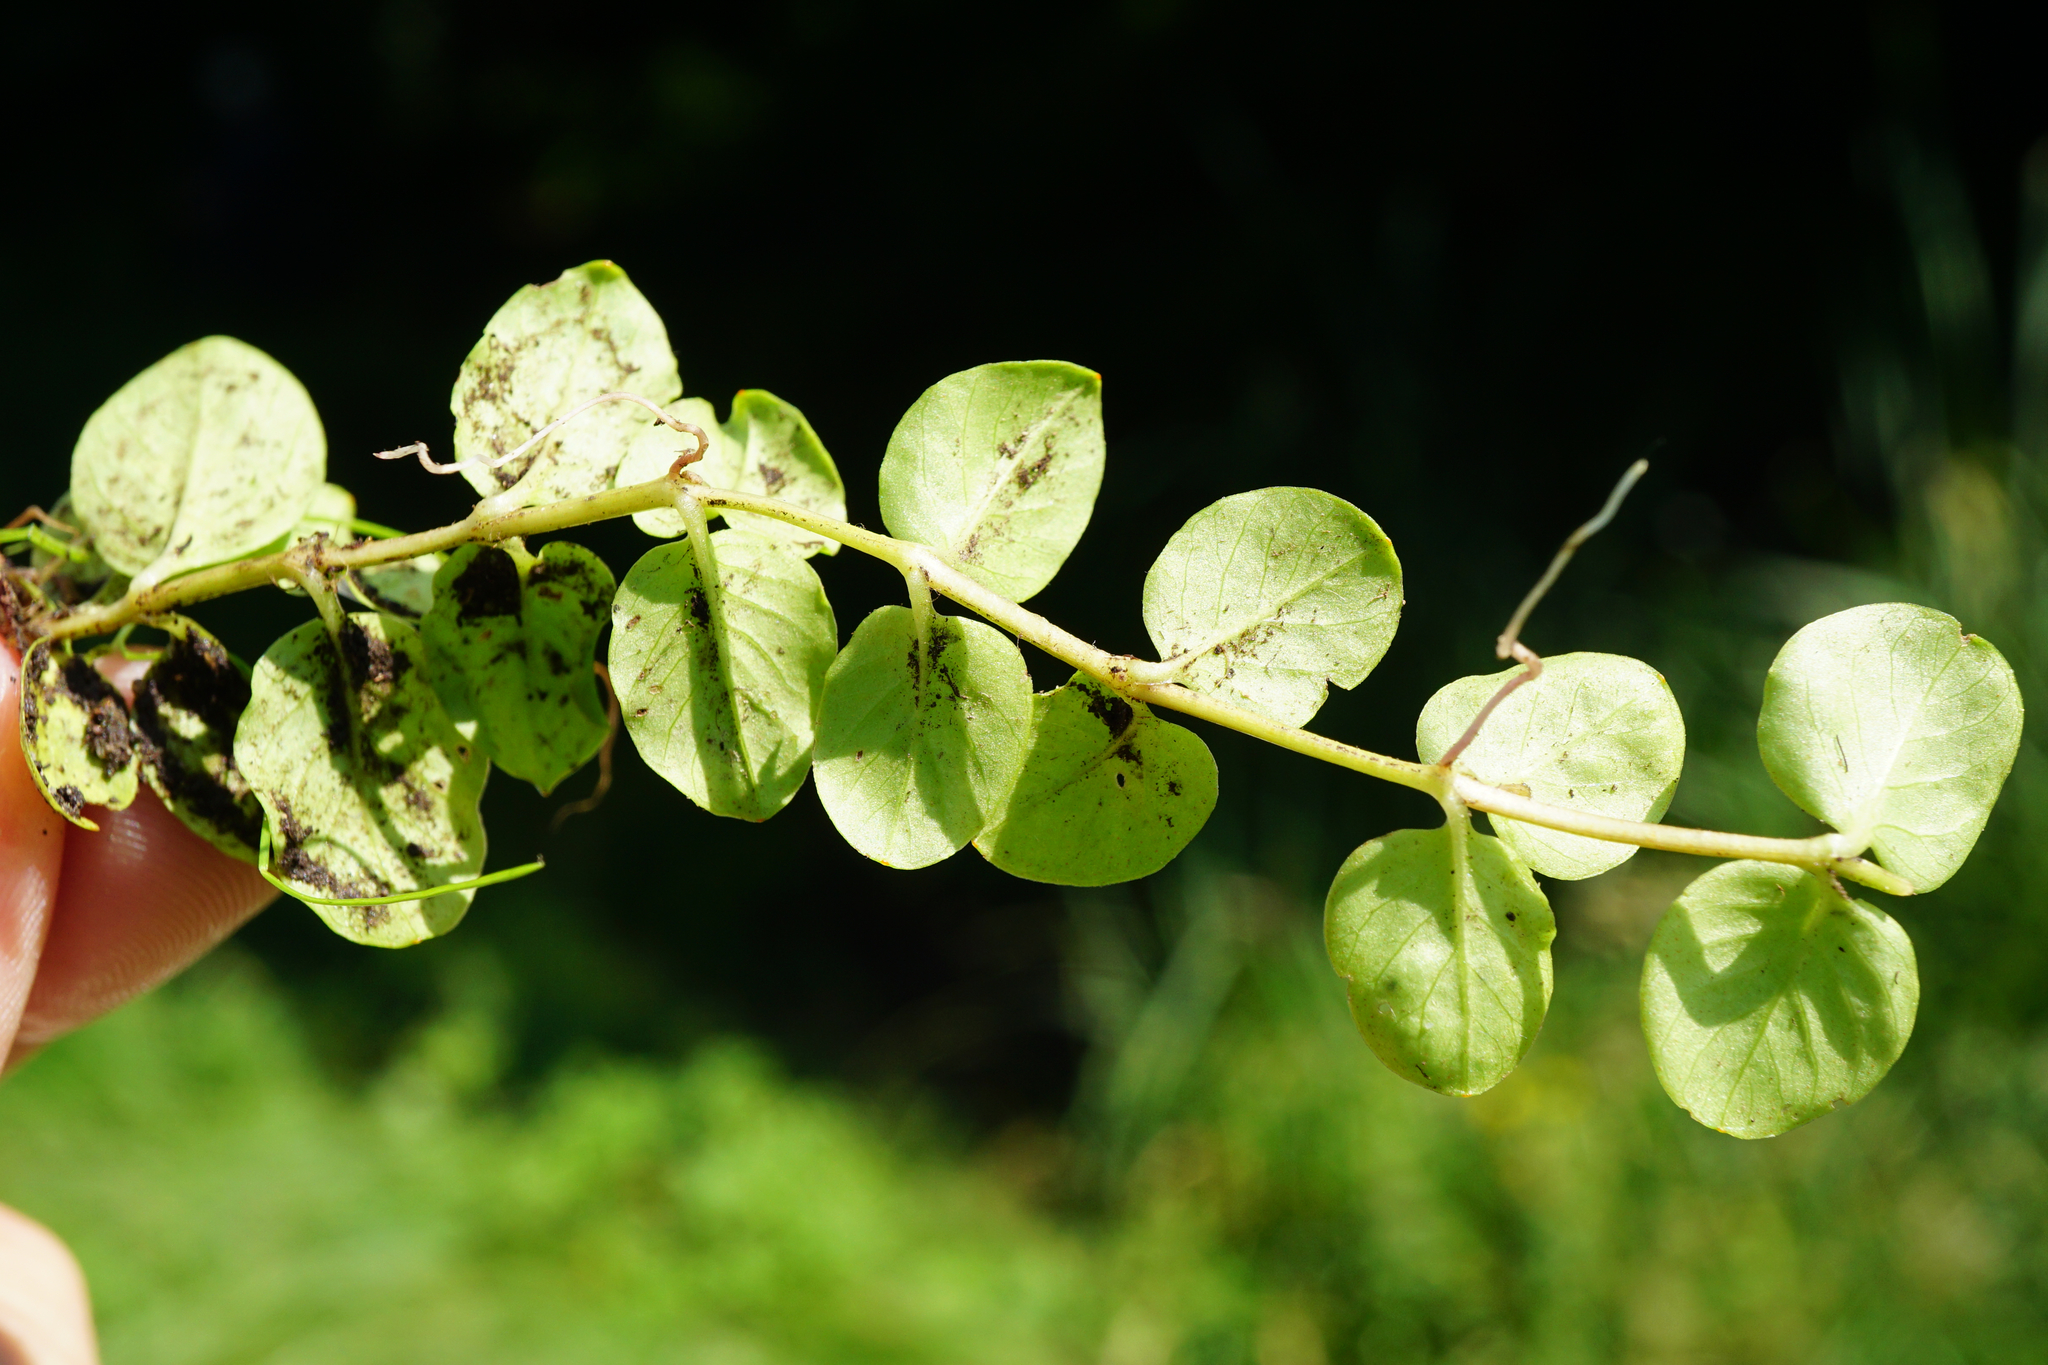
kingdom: Plantae
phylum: Tracheophyta
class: Magnoliopsida
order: Ericales
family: Primulaceae
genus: Lysimachia
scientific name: Lysimachia nummularia
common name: Moneywort
